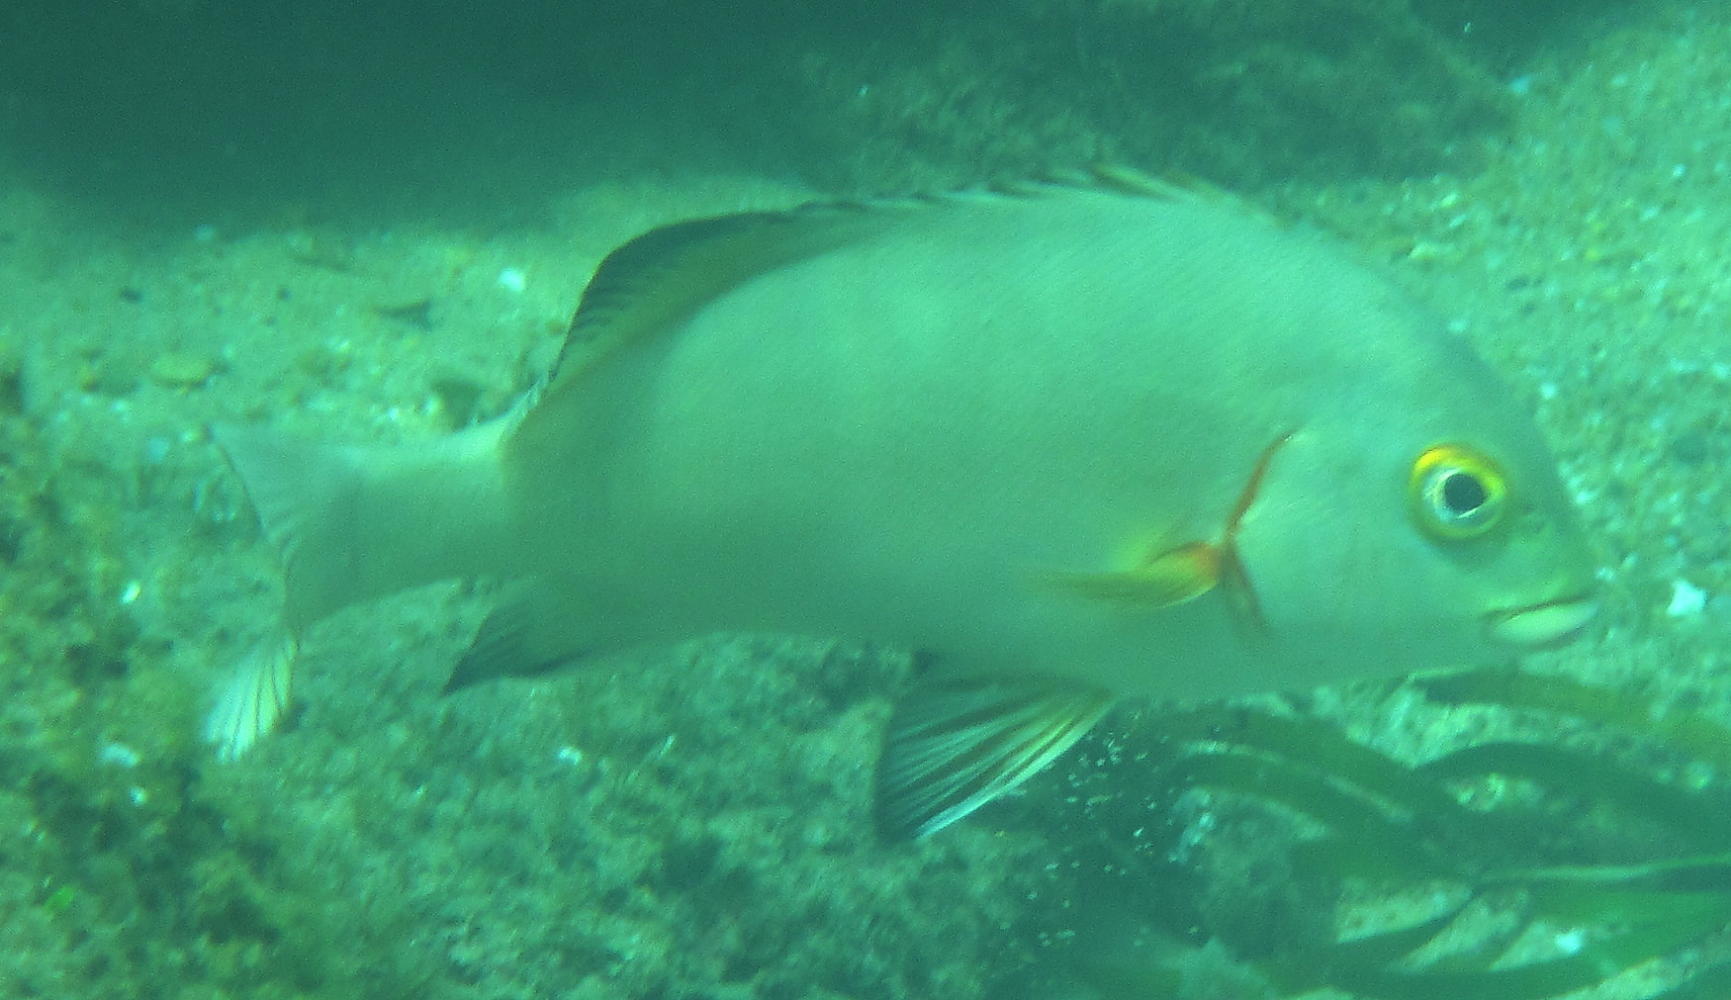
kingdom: Animalia
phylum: Chordata
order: Perciformes
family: Haemulidae
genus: Plectorhinchus
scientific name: Plectorhinchus schotaf
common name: Minstrel sweetlips
